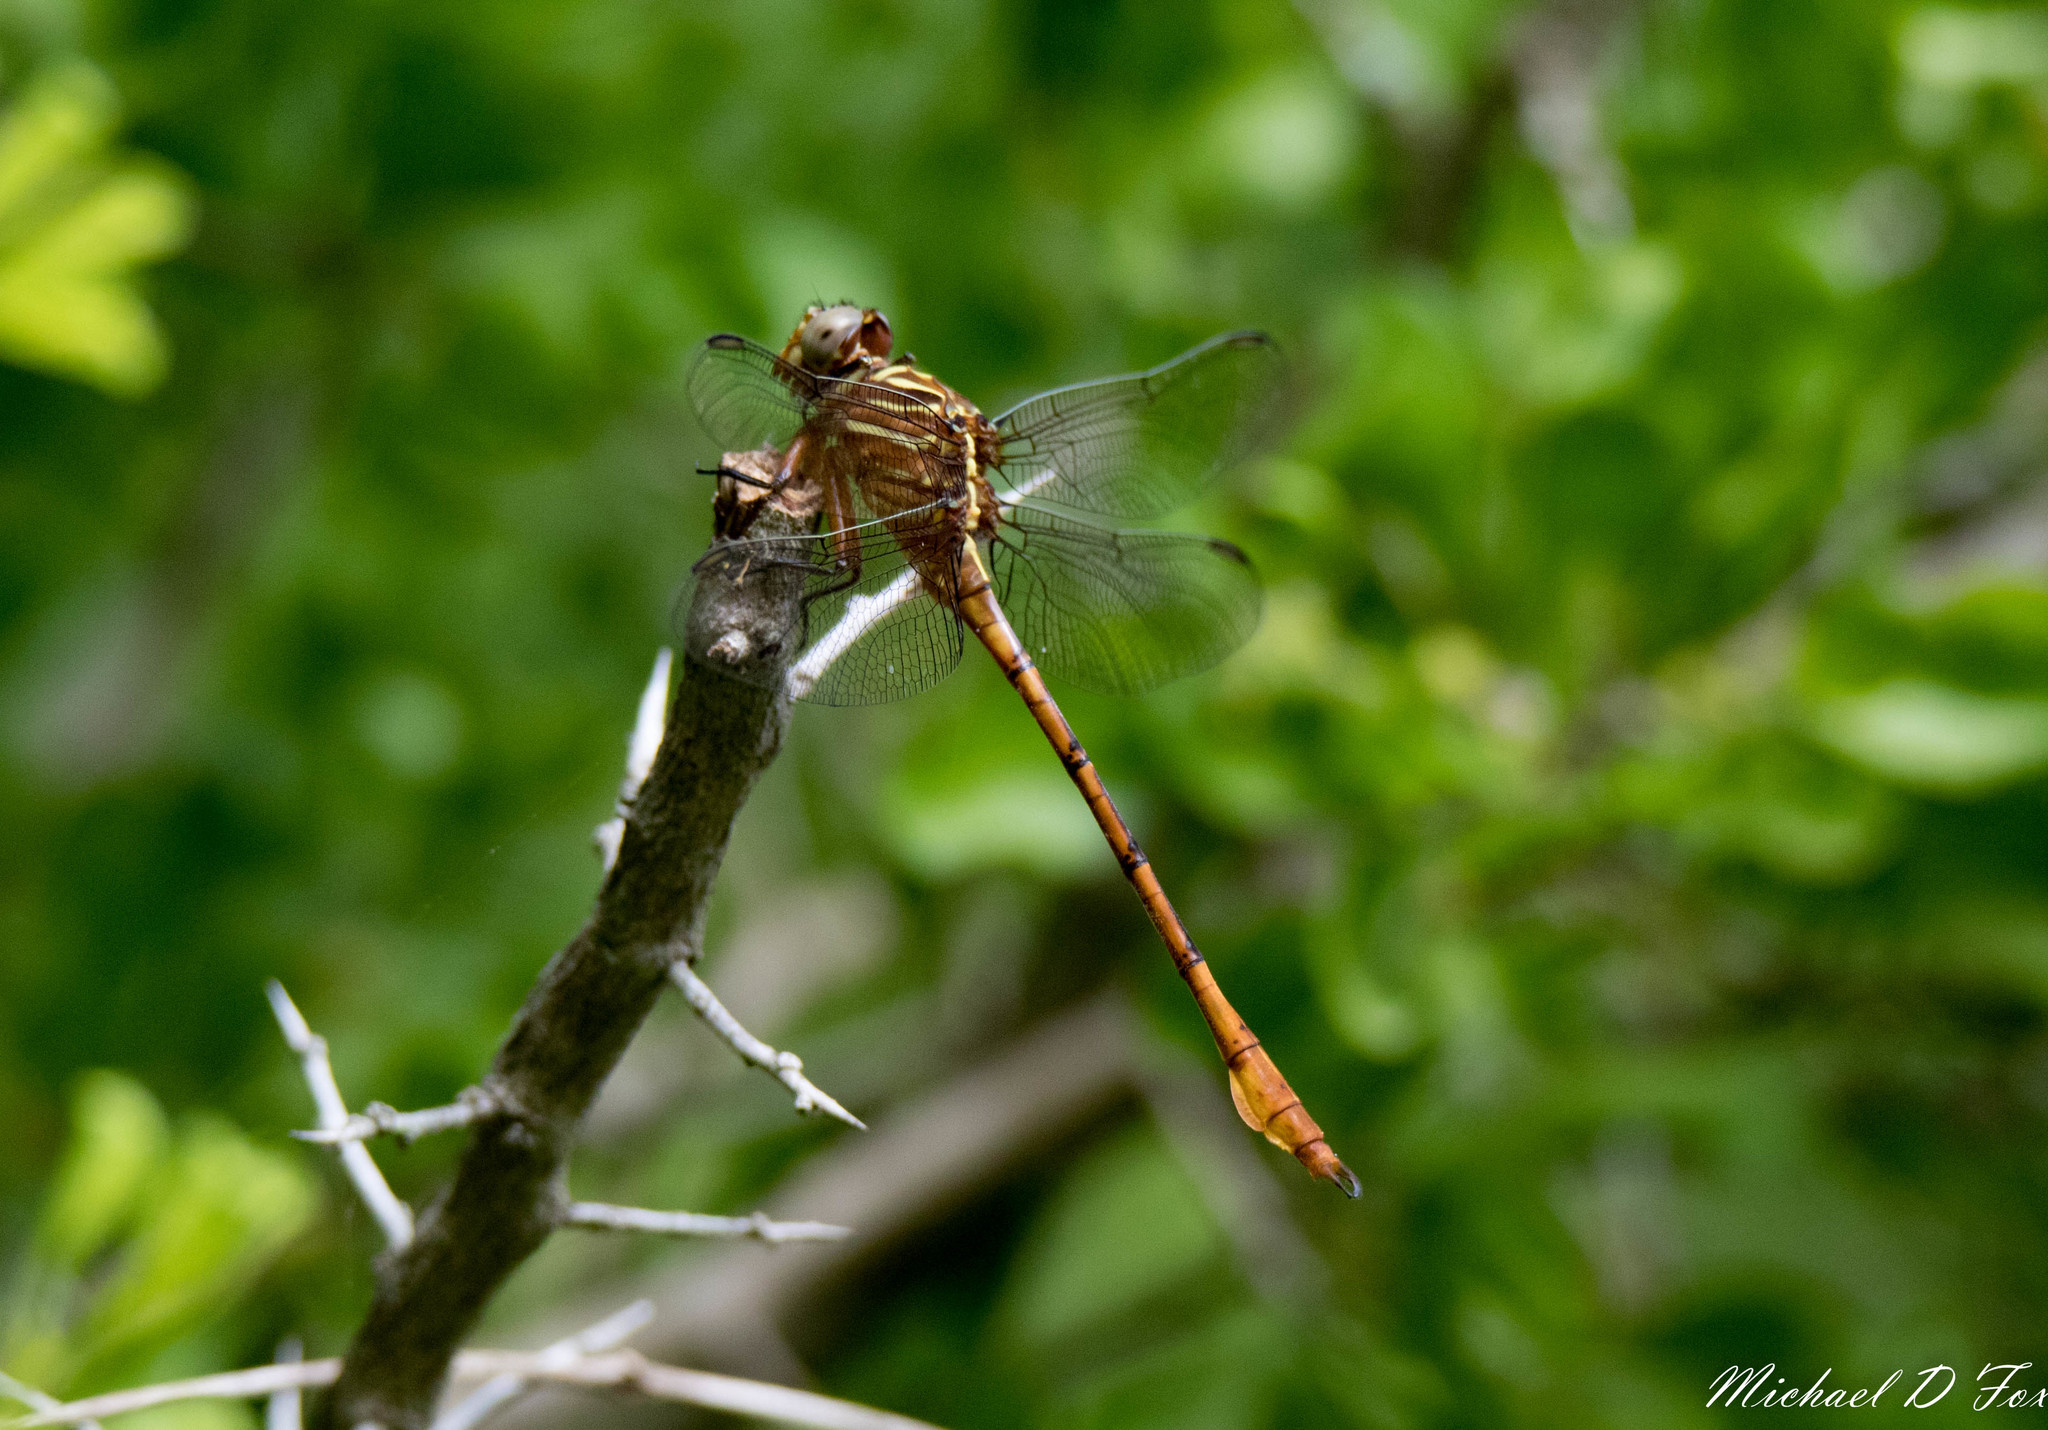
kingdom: Animalia
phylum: Arthropoda
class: Insecta
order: Odonata
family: Gomphidae
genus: Aphylla
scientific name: Aphylla protracta
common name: Narrow-striped forceptail
